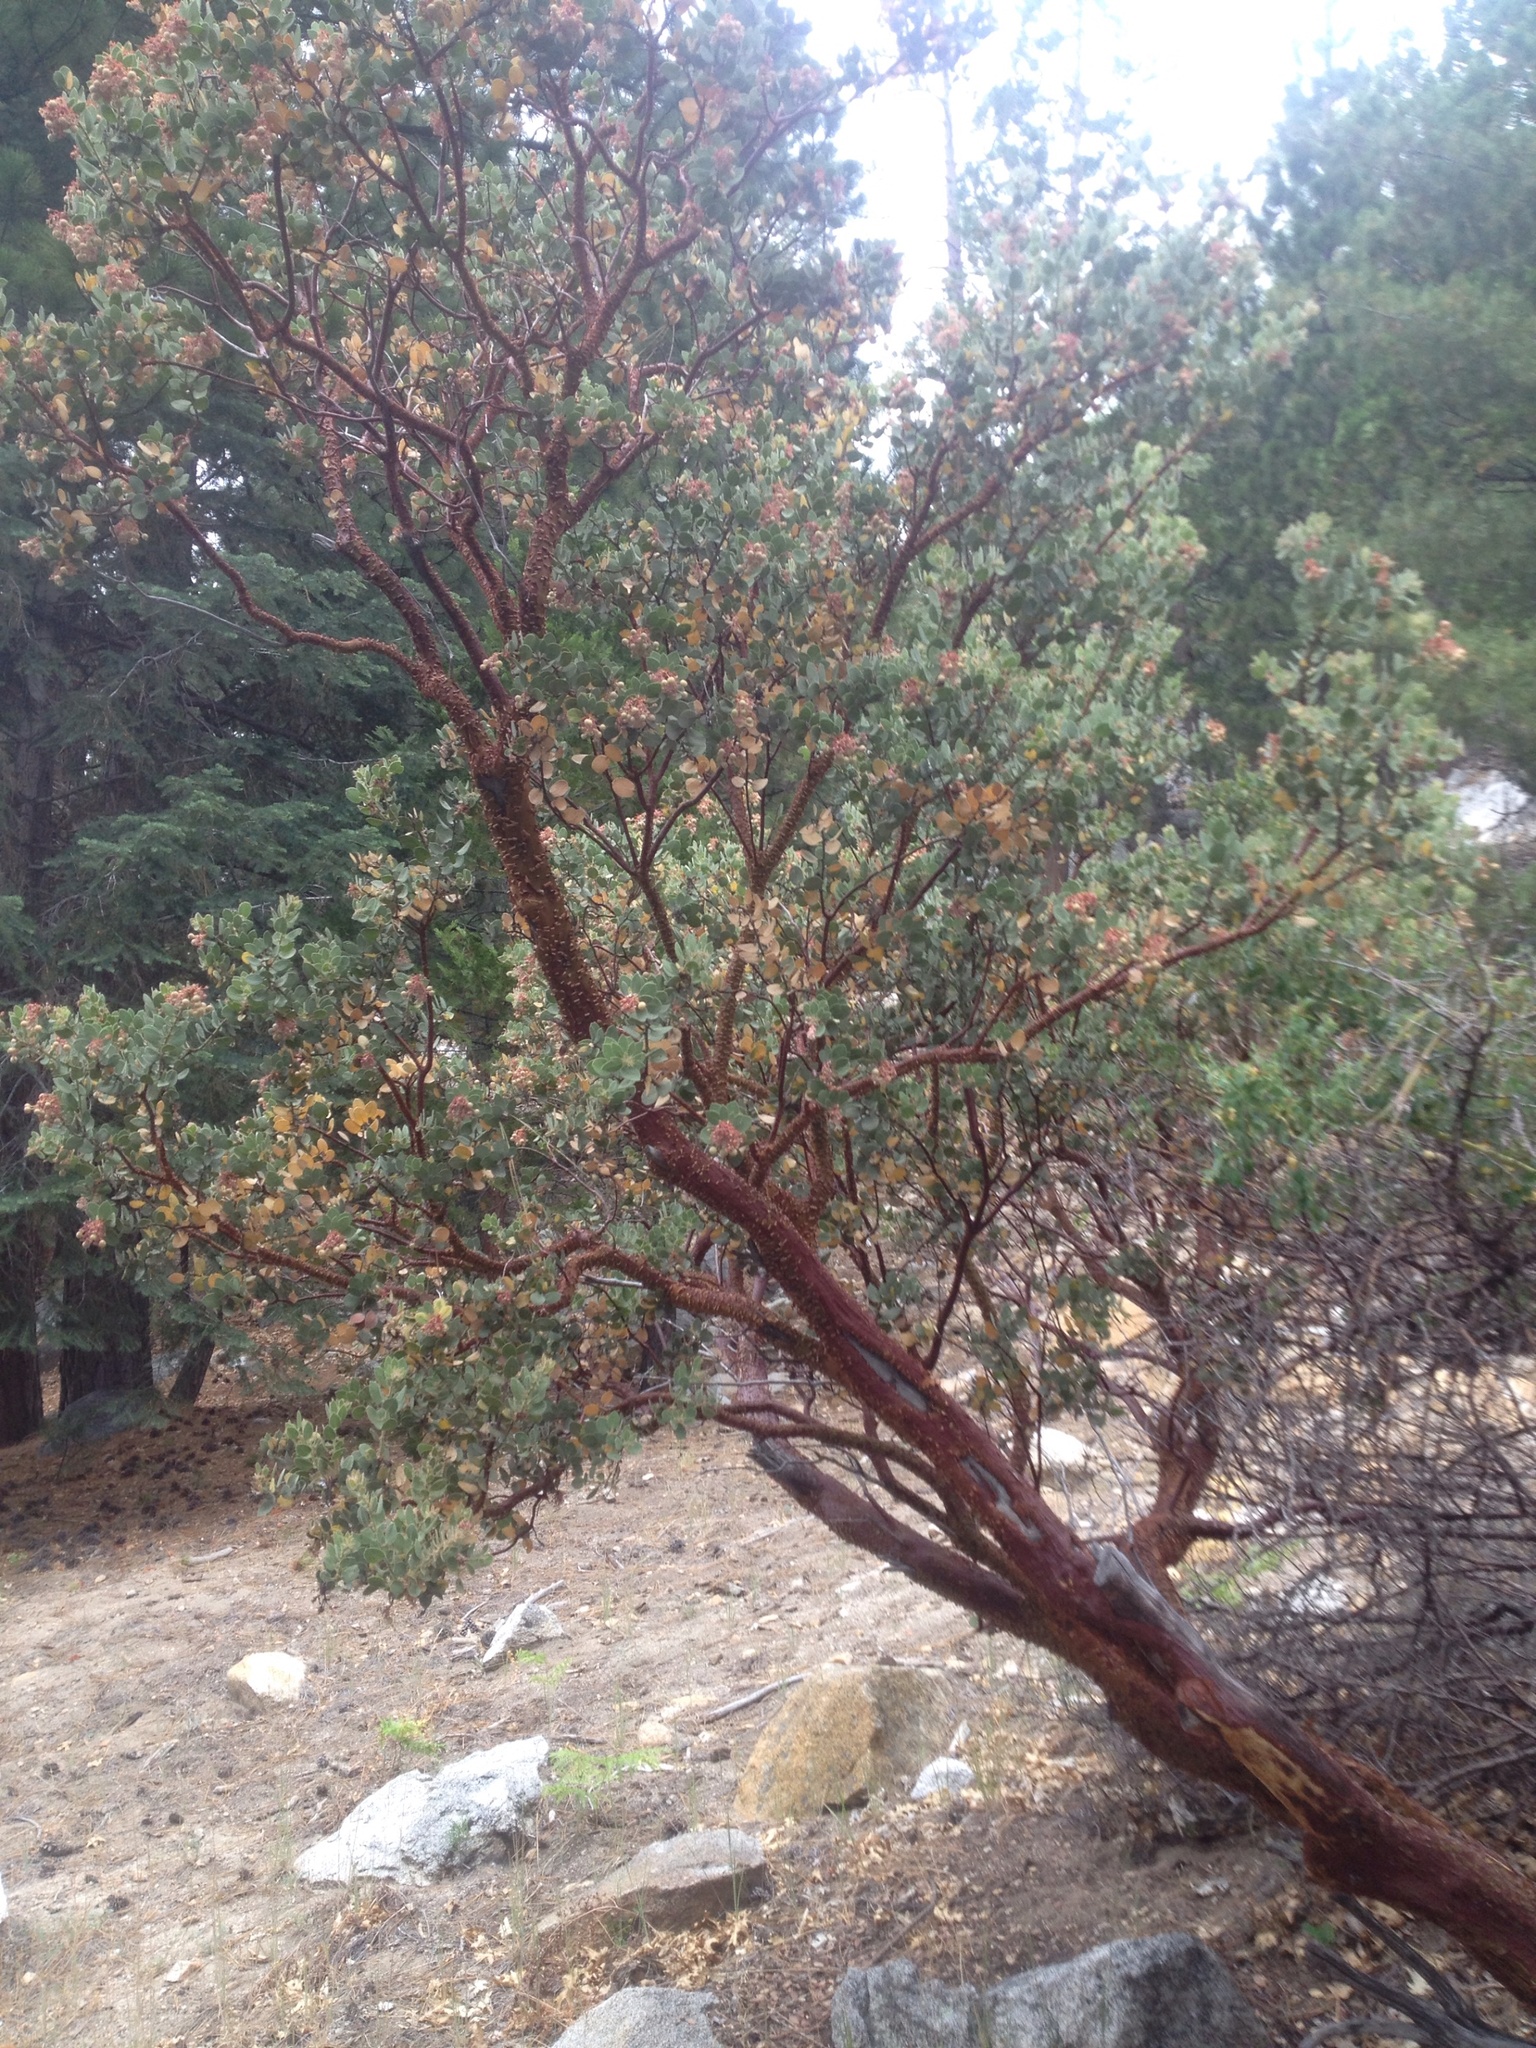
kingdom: Plantae
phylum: Tracheophyta
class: Magnoliopsida
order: Ericales
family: Ericaceae
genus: Arctostaphylos
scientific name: Arctostaphylos pringlei
